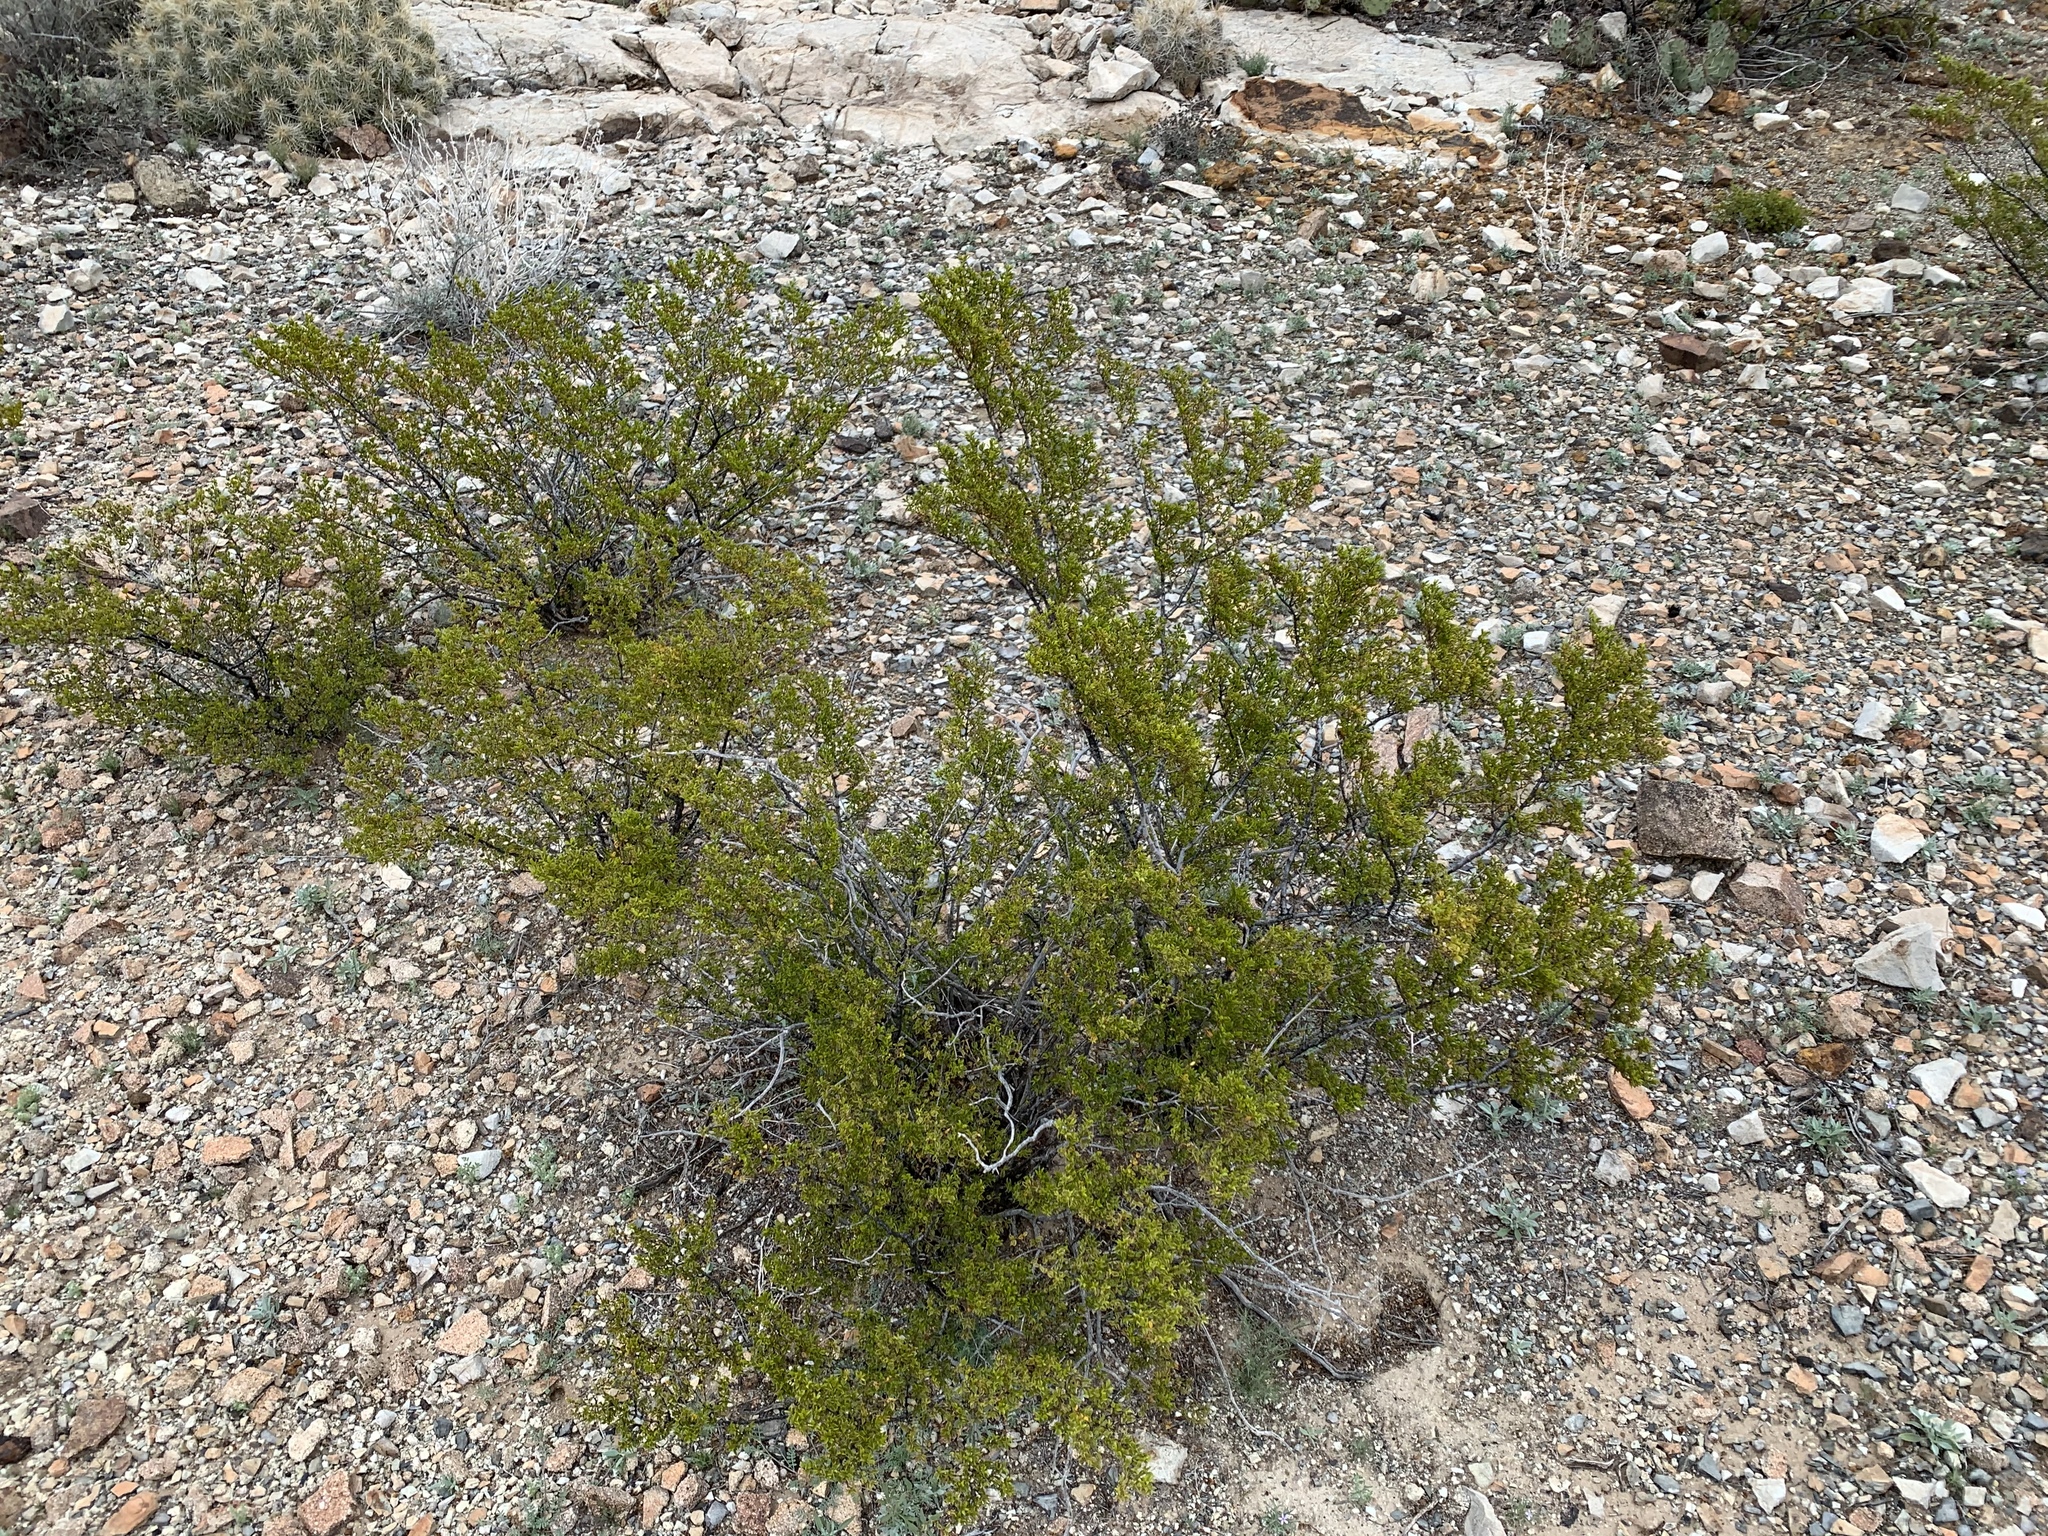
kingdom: Plantae
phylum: Tracheophyta
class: Magnoliopsida
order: Zygophyllales
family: Zygophyllaceae
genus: Larrea
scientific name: Larrea tridentata
